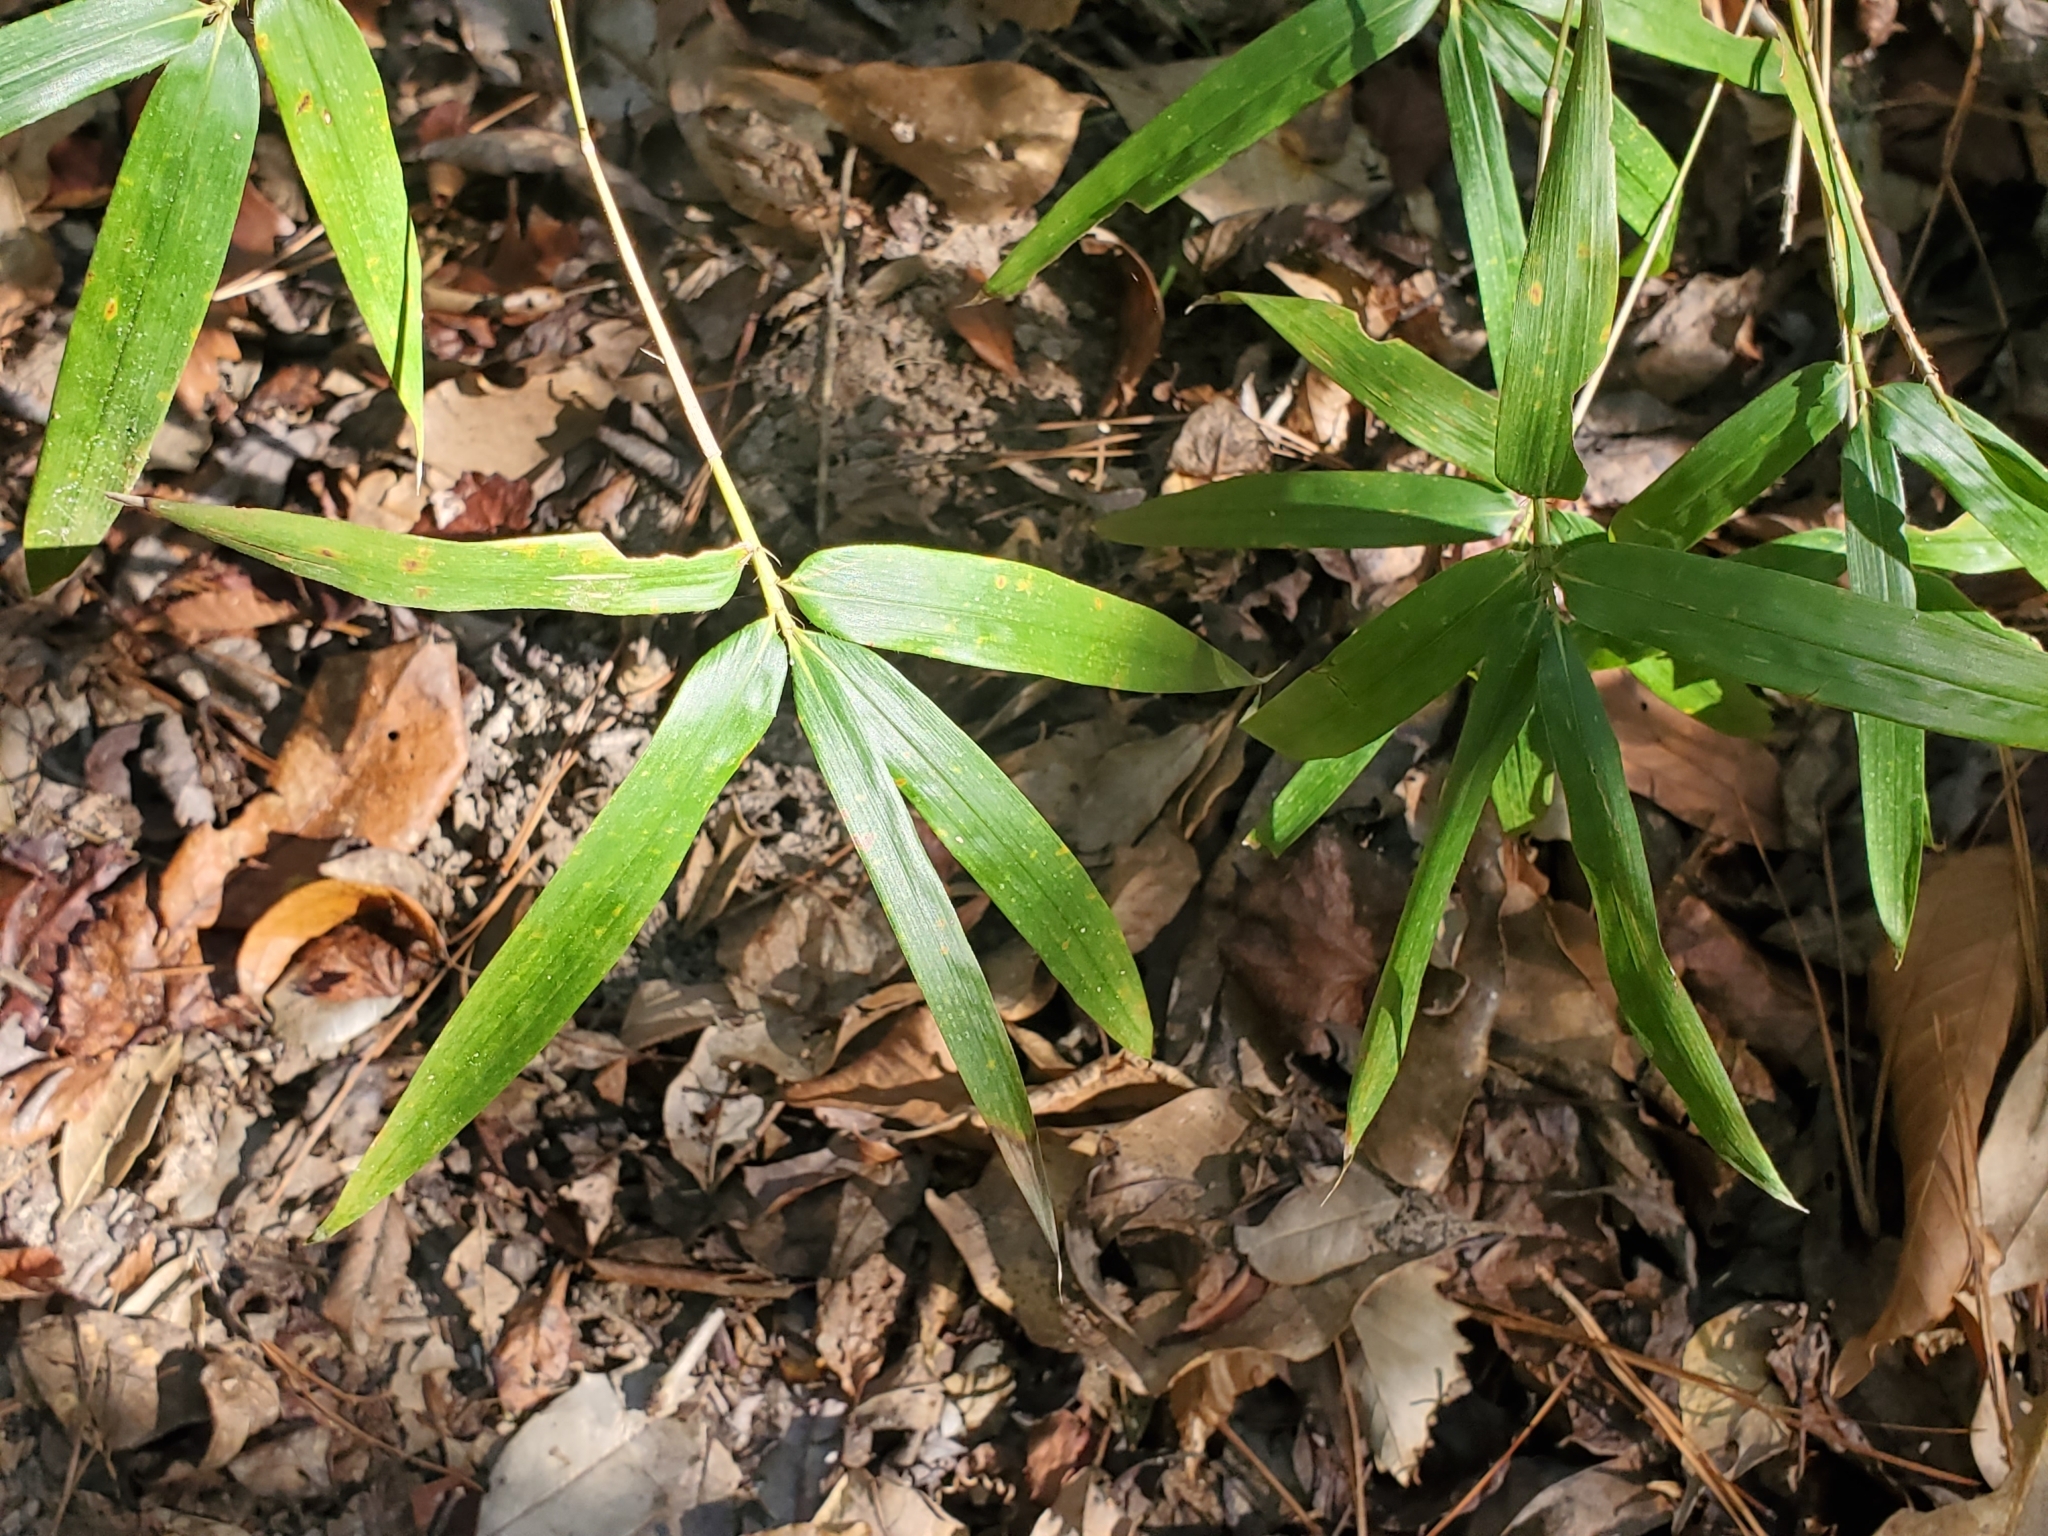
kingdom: Plantae
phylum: Tracheophyta
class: Liliopsida
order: Poales
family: Poaceae
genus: Arundinaria
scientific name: Arundinaria gigantea
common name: Giant cane
